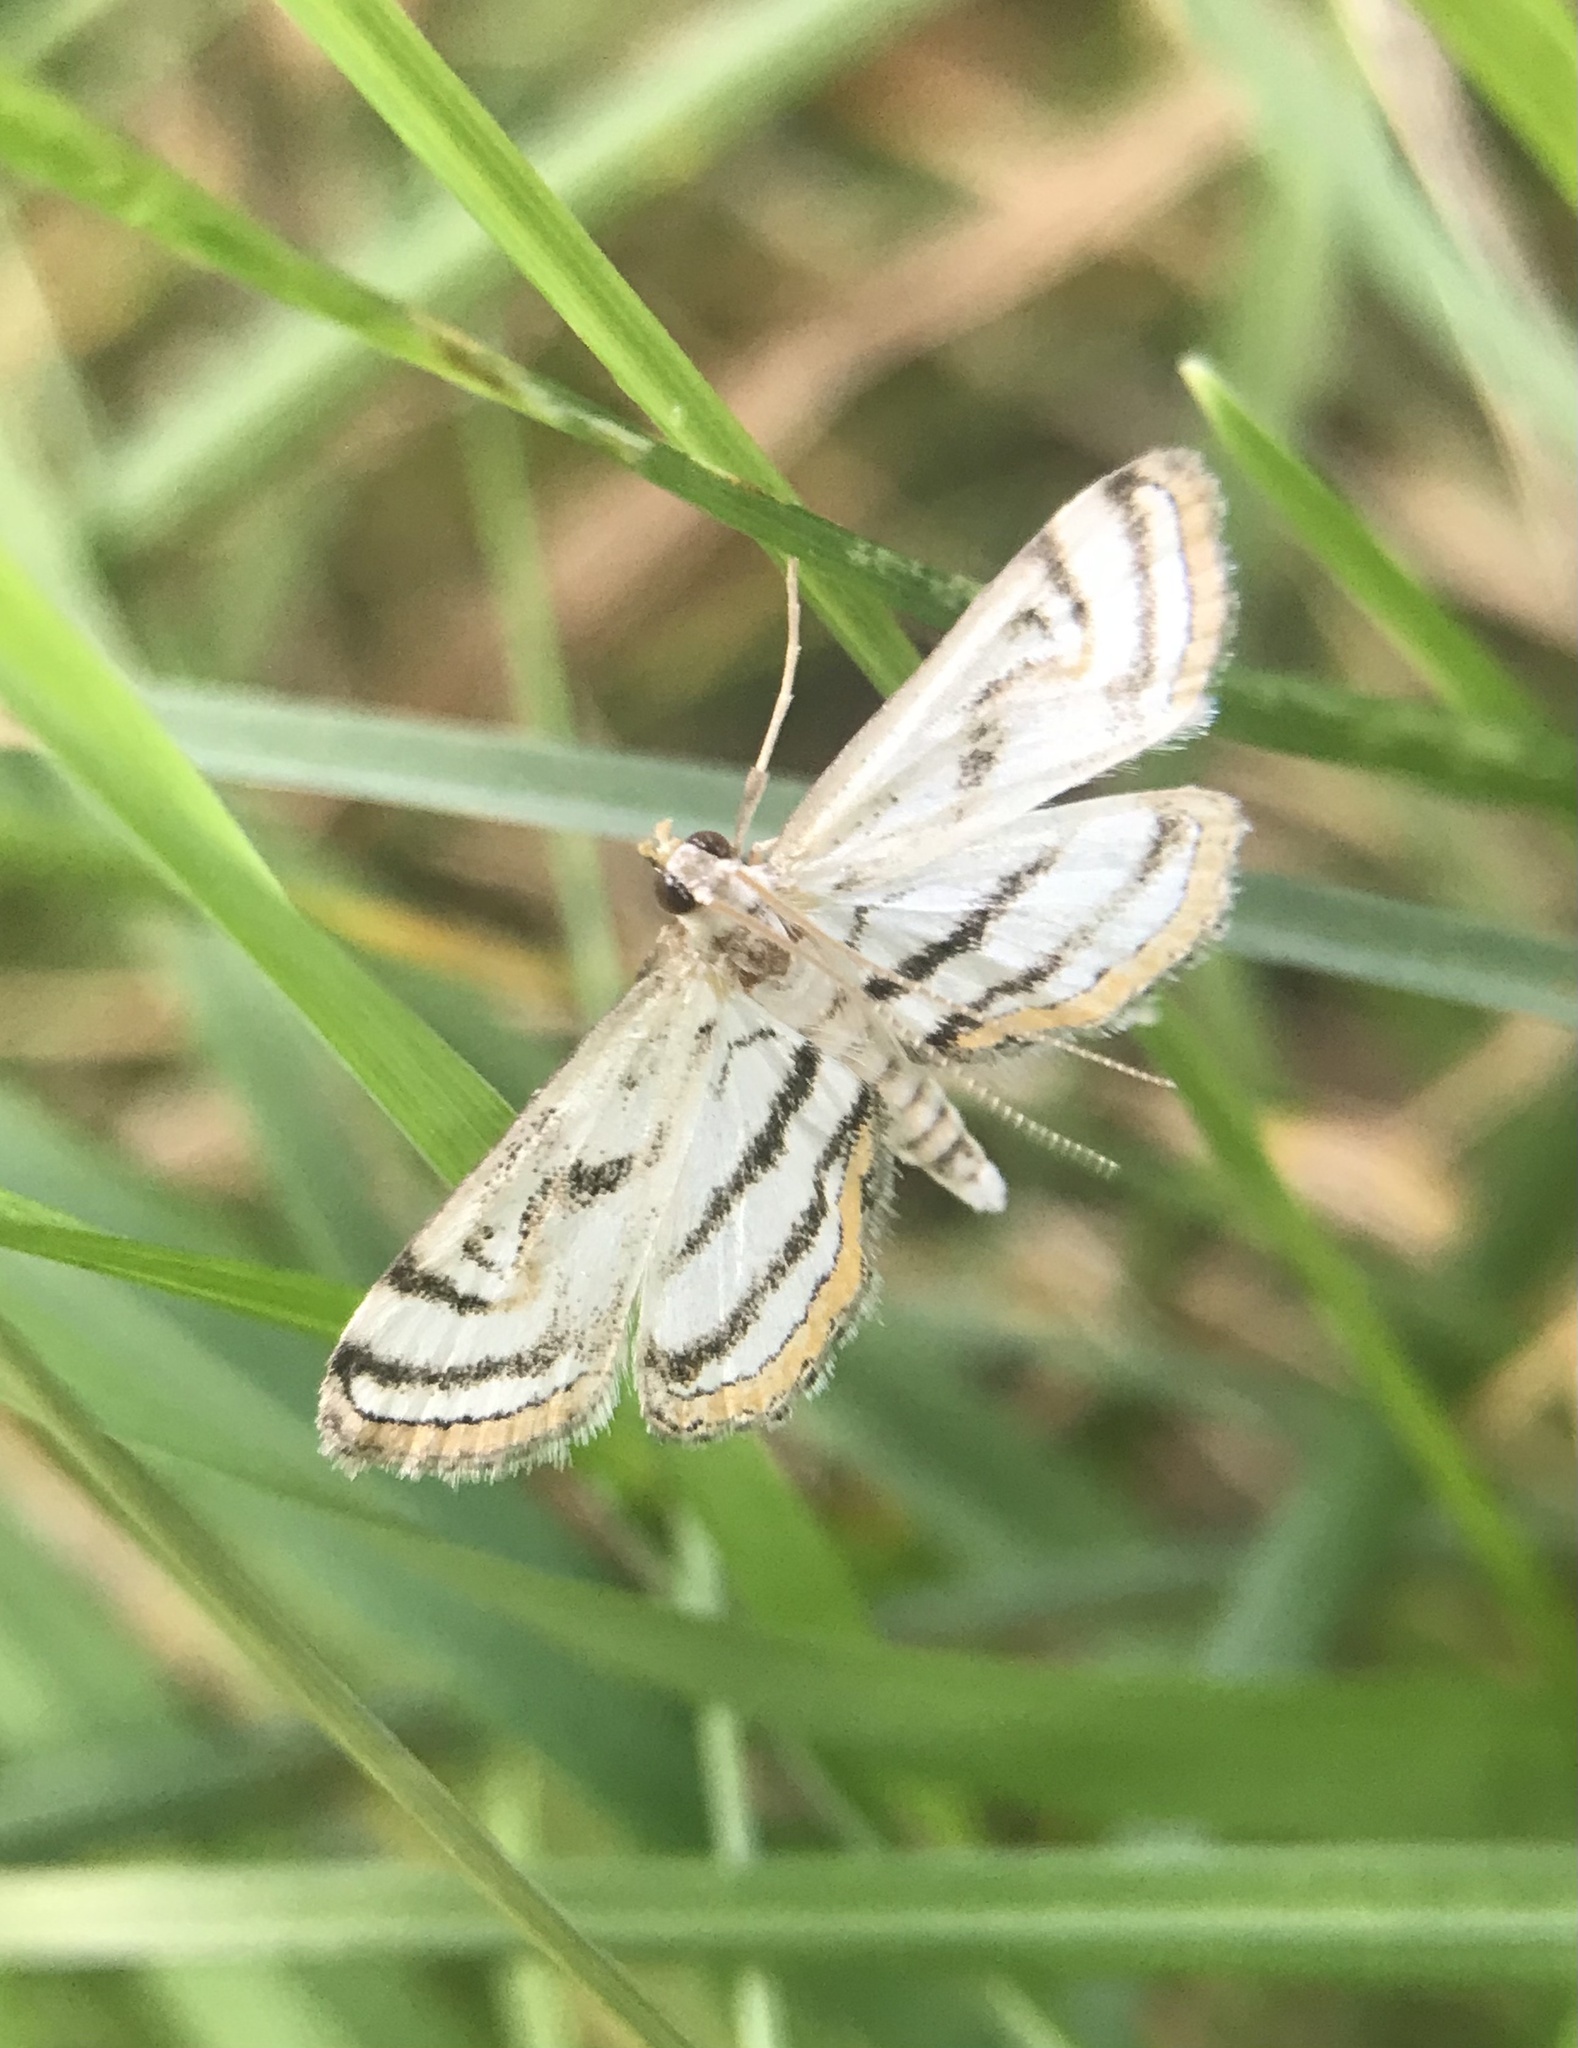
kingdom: Animalia
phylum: Arthropoda
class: Insecta
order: Lepidoptera
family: Crambidae
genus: Parapoynx
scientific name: Parapoynx badiusalis
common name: Chestnut-marked pondweed moth
